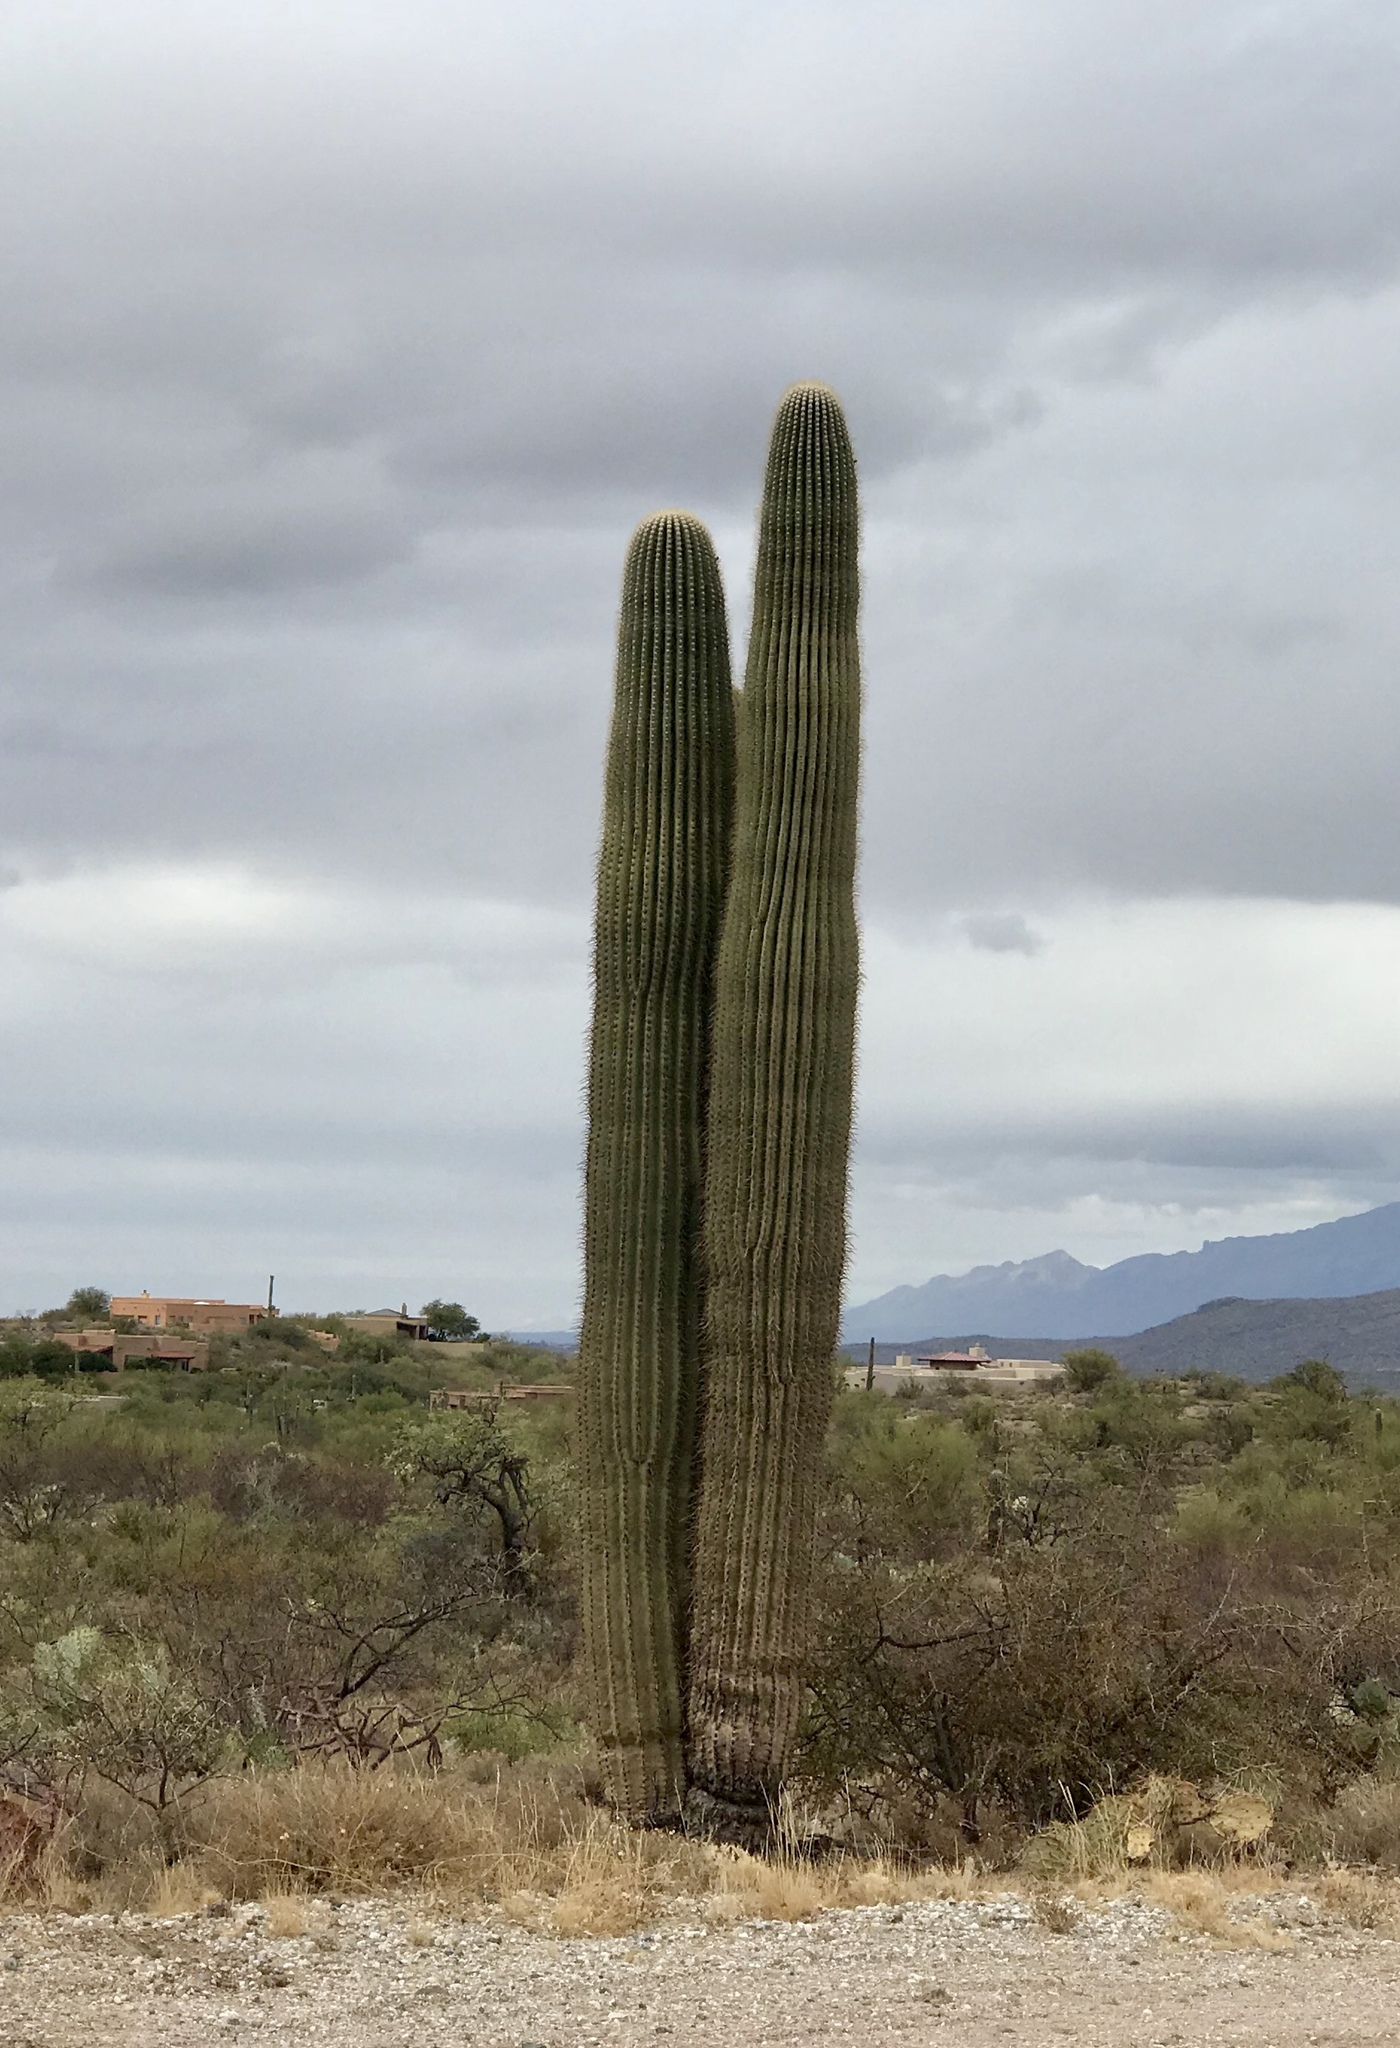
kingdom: Plantae
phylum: Tracheophyta
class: Magnoliopsida
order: Caryophyllales
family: Cactaceae
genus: Carnegiea
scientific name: Carnegiea gigantea
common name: Saguaro
